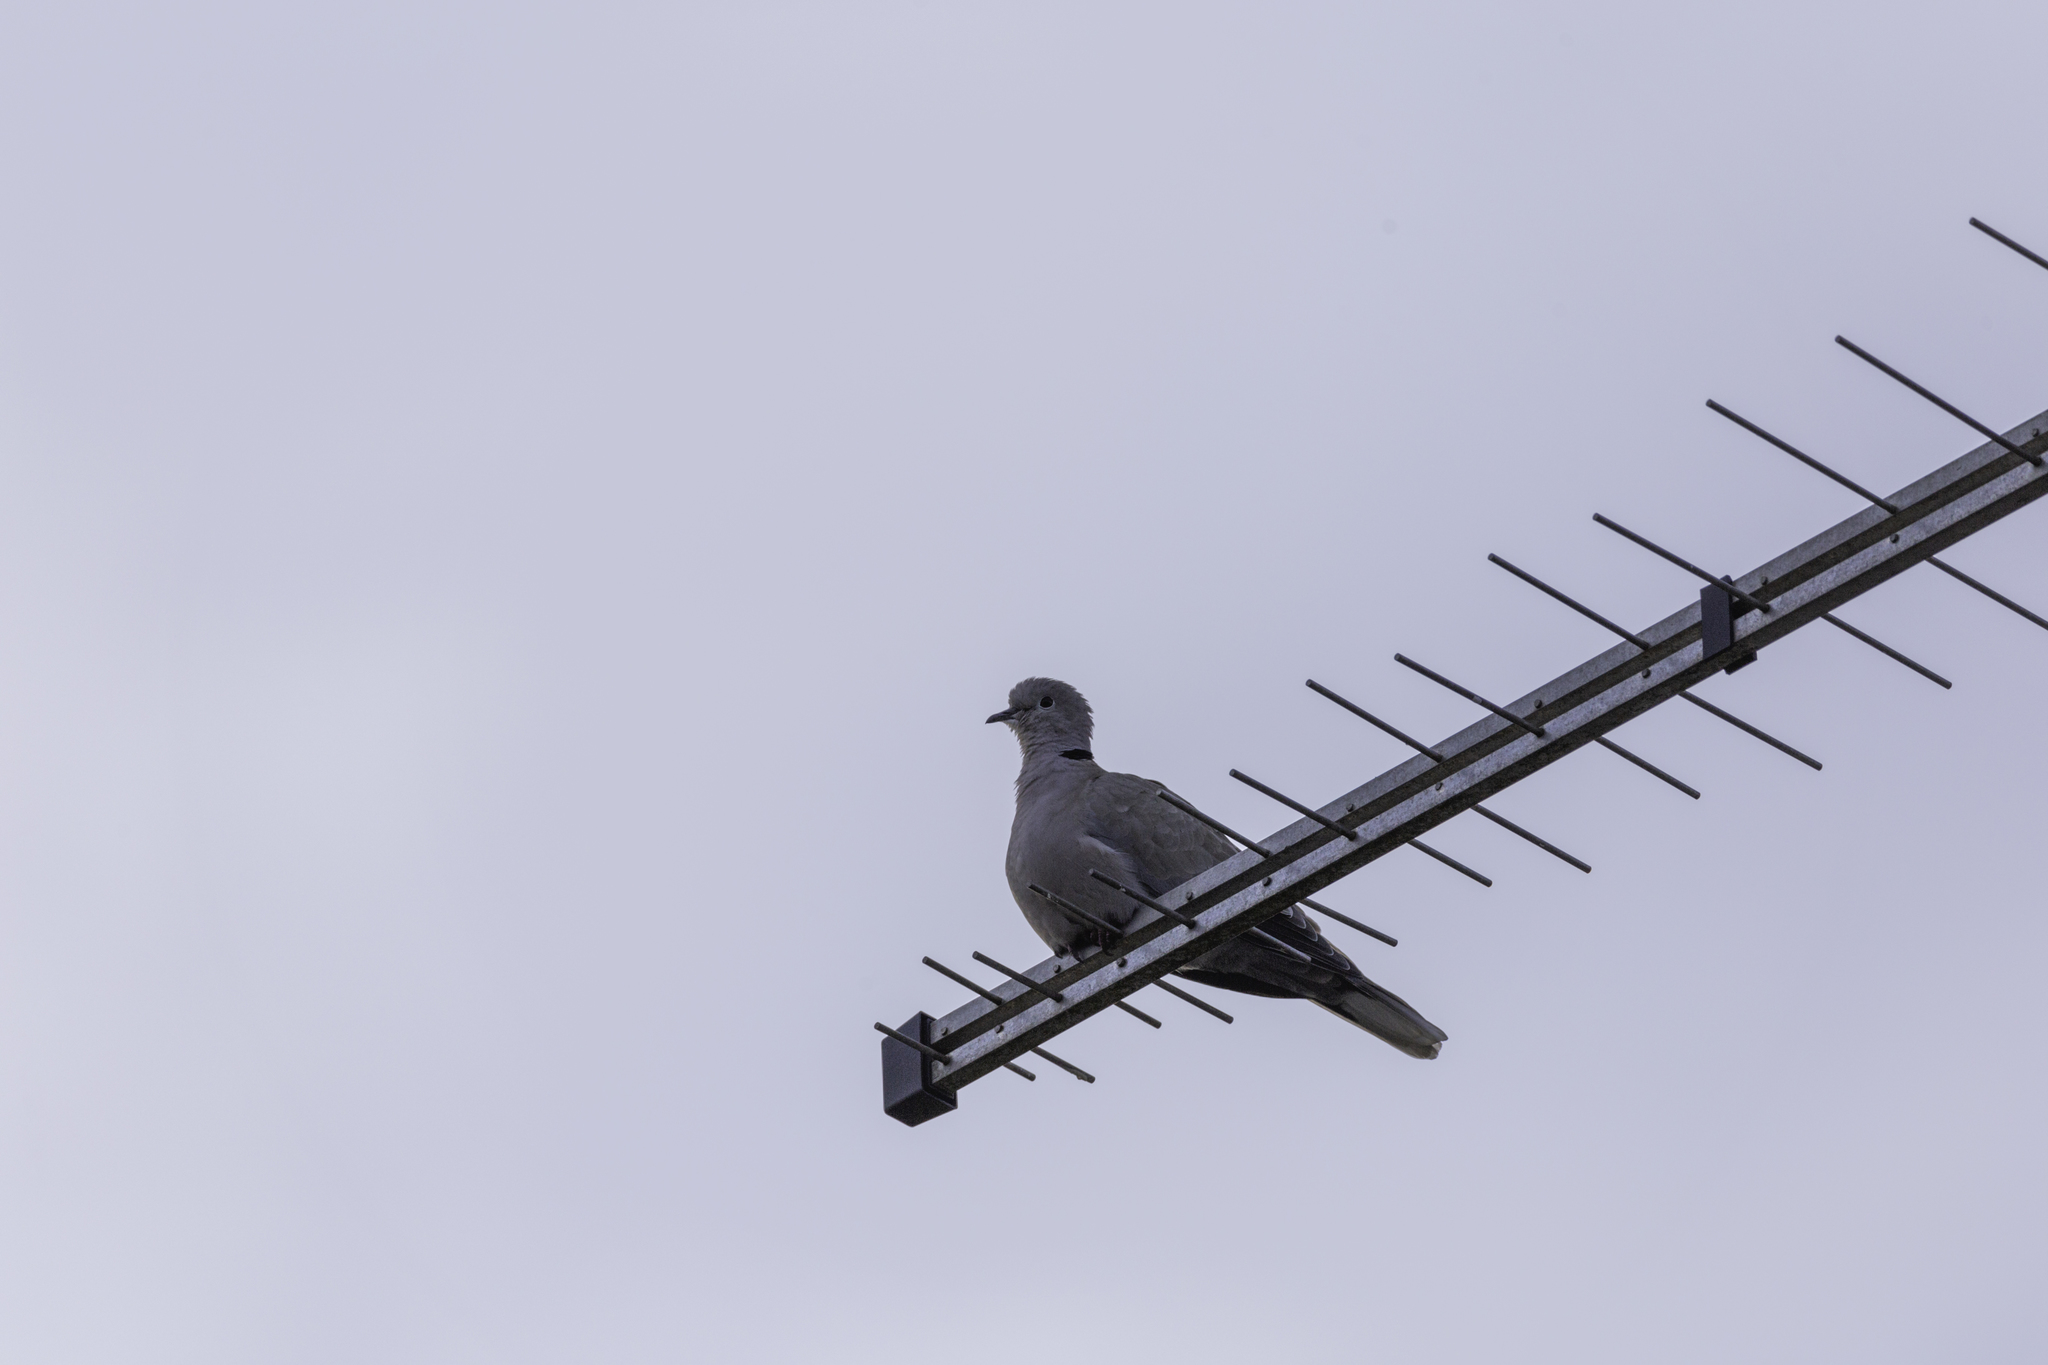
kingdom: Animalia
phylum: Chordata
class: Aves
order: Columbiformes
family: Columbidae
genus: Streptopelia
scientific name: Streptopelia decaocto
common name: Eurasian collared dove
